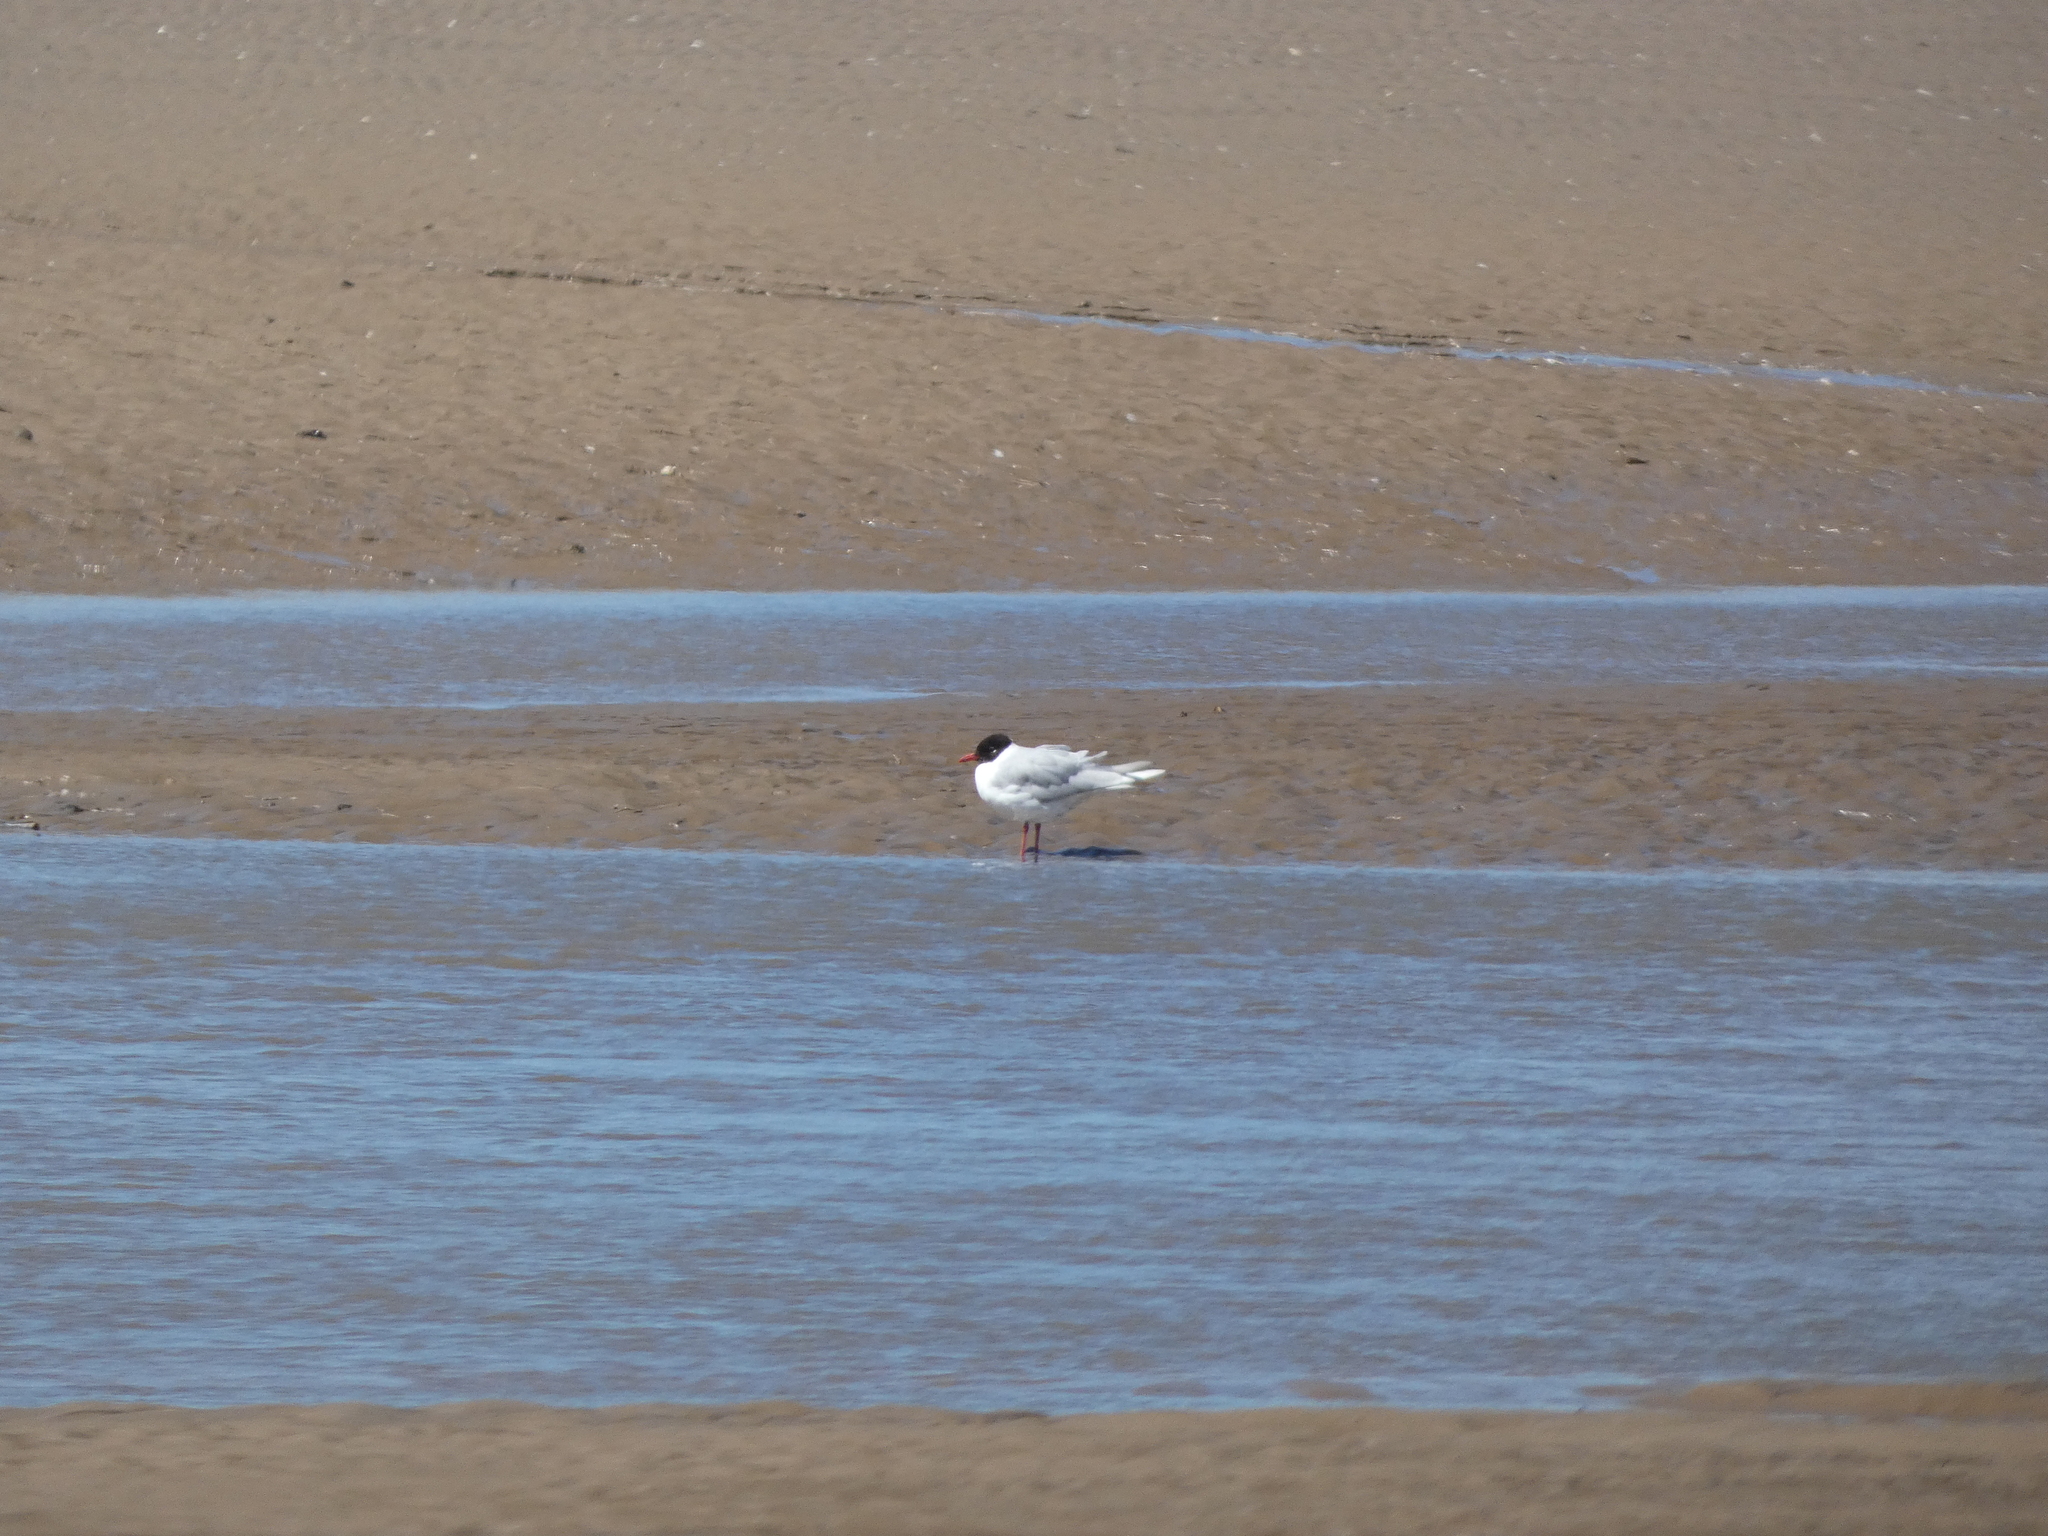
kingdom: Animalia
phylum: Chordata
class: Aves
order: Charadriiformes
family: Laridae
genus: Ichthyaetus
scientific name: Ichthyaetus melanocephalus
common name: Mediterranean gull
